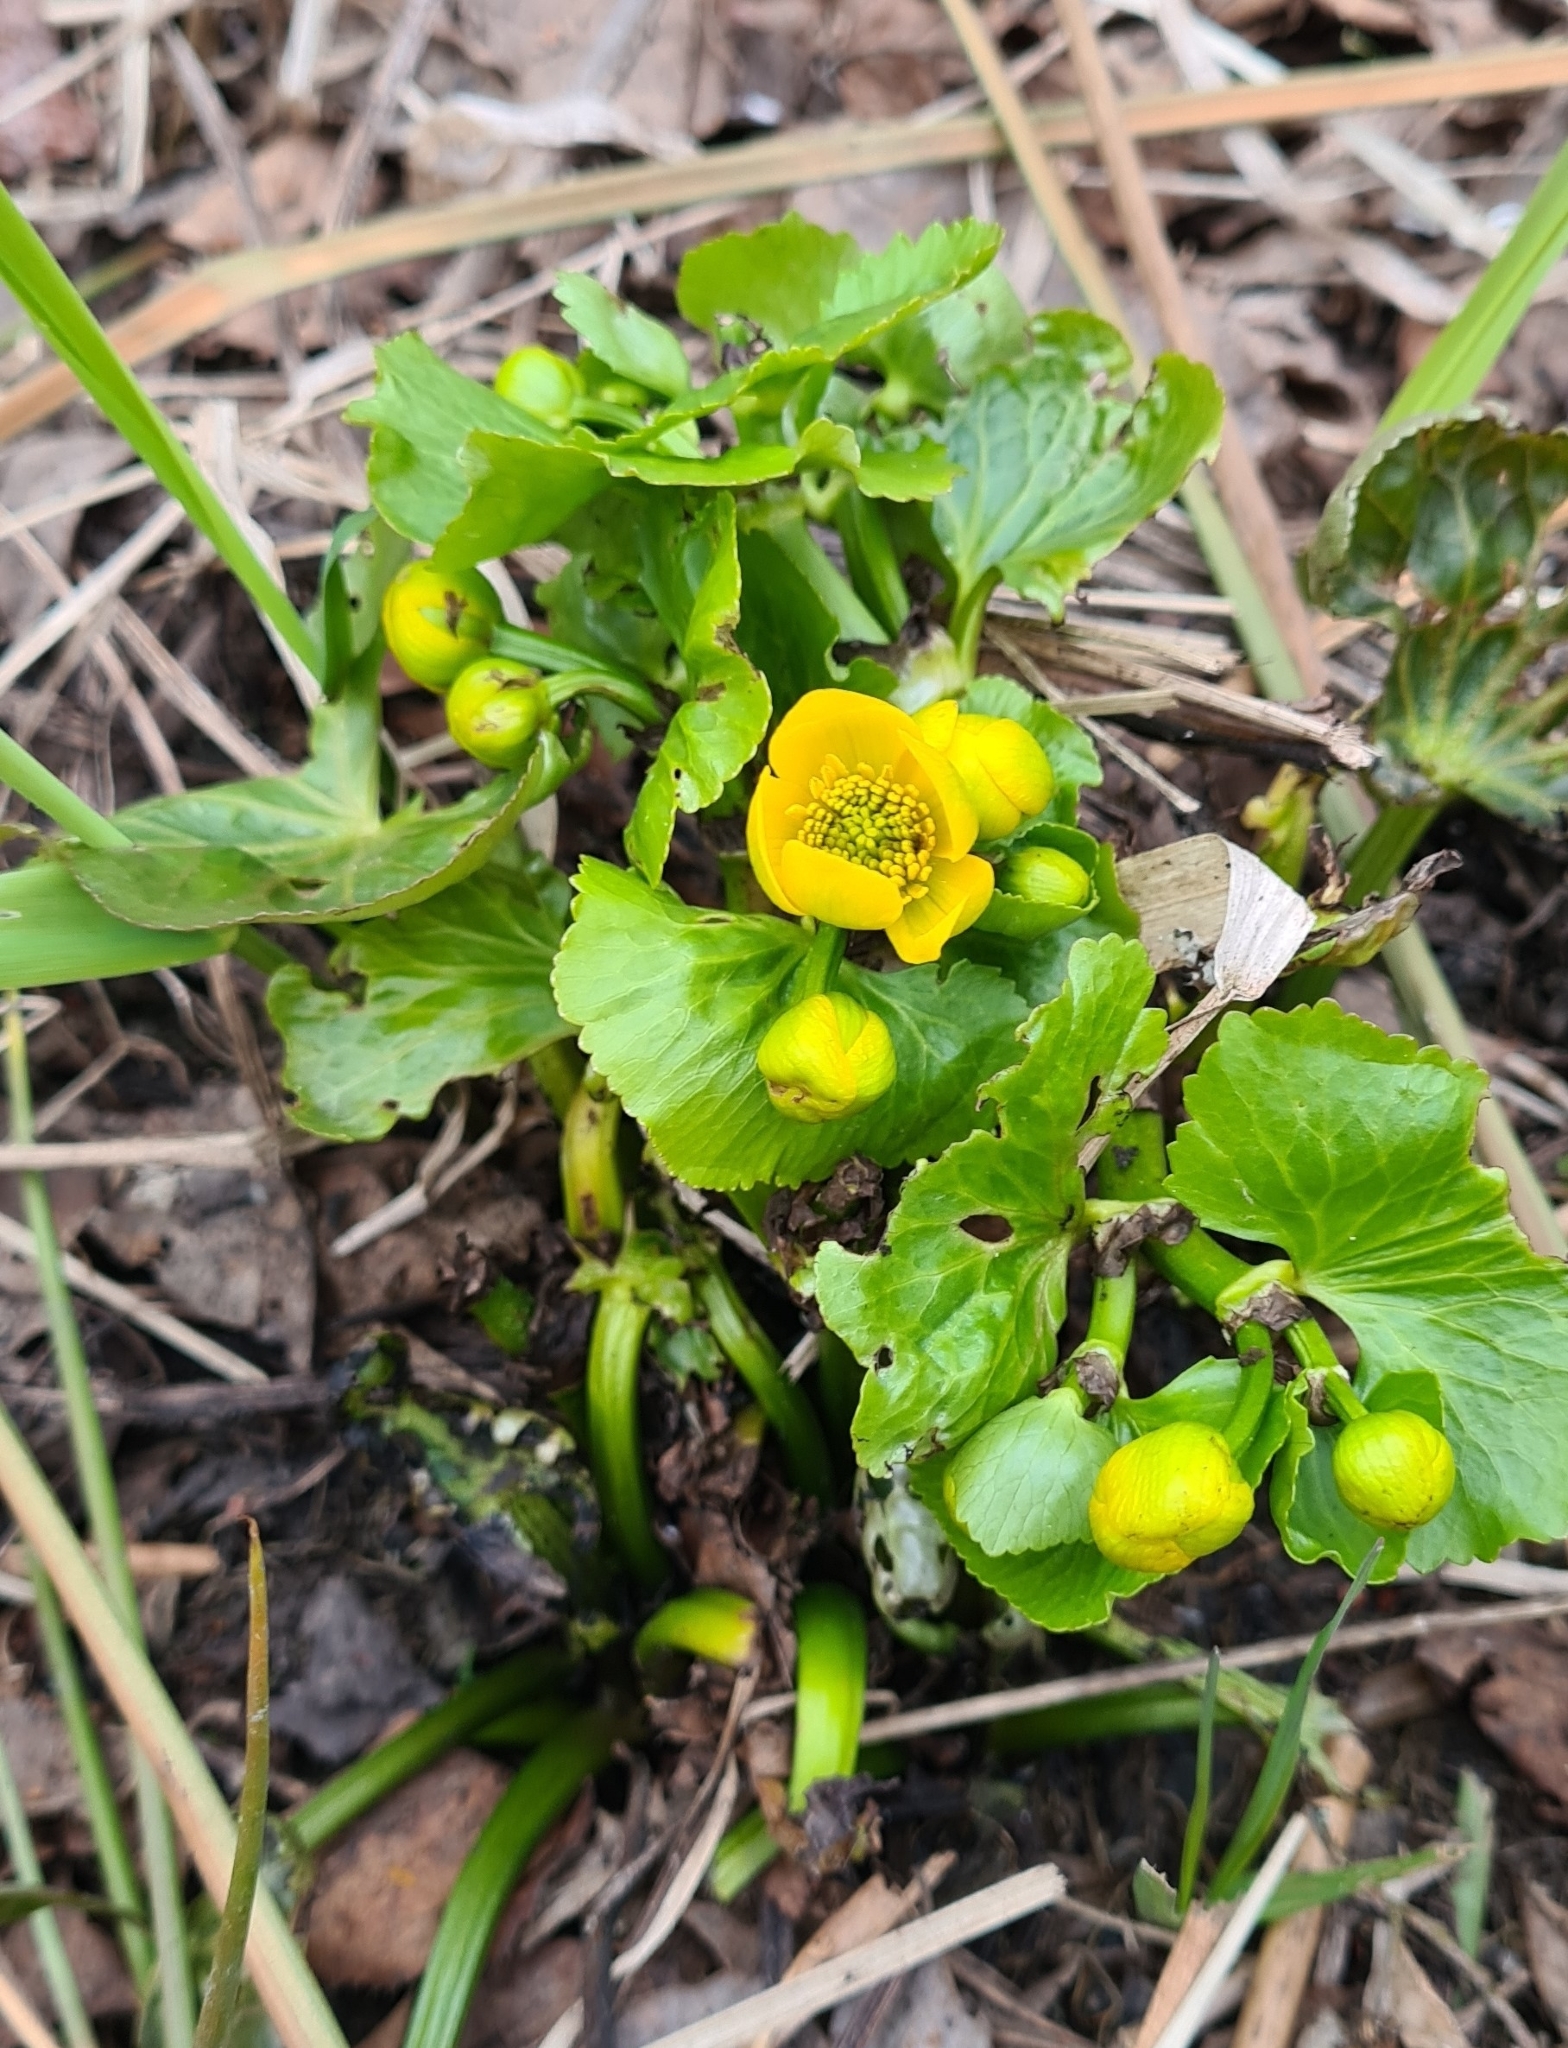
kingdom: Plantae
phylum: Tracheophyta
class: Magnoliopsida
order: Ranunculales
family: Ranunculaceae
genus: Caltha
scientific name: Caltha palustris
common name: Marsh marigold
